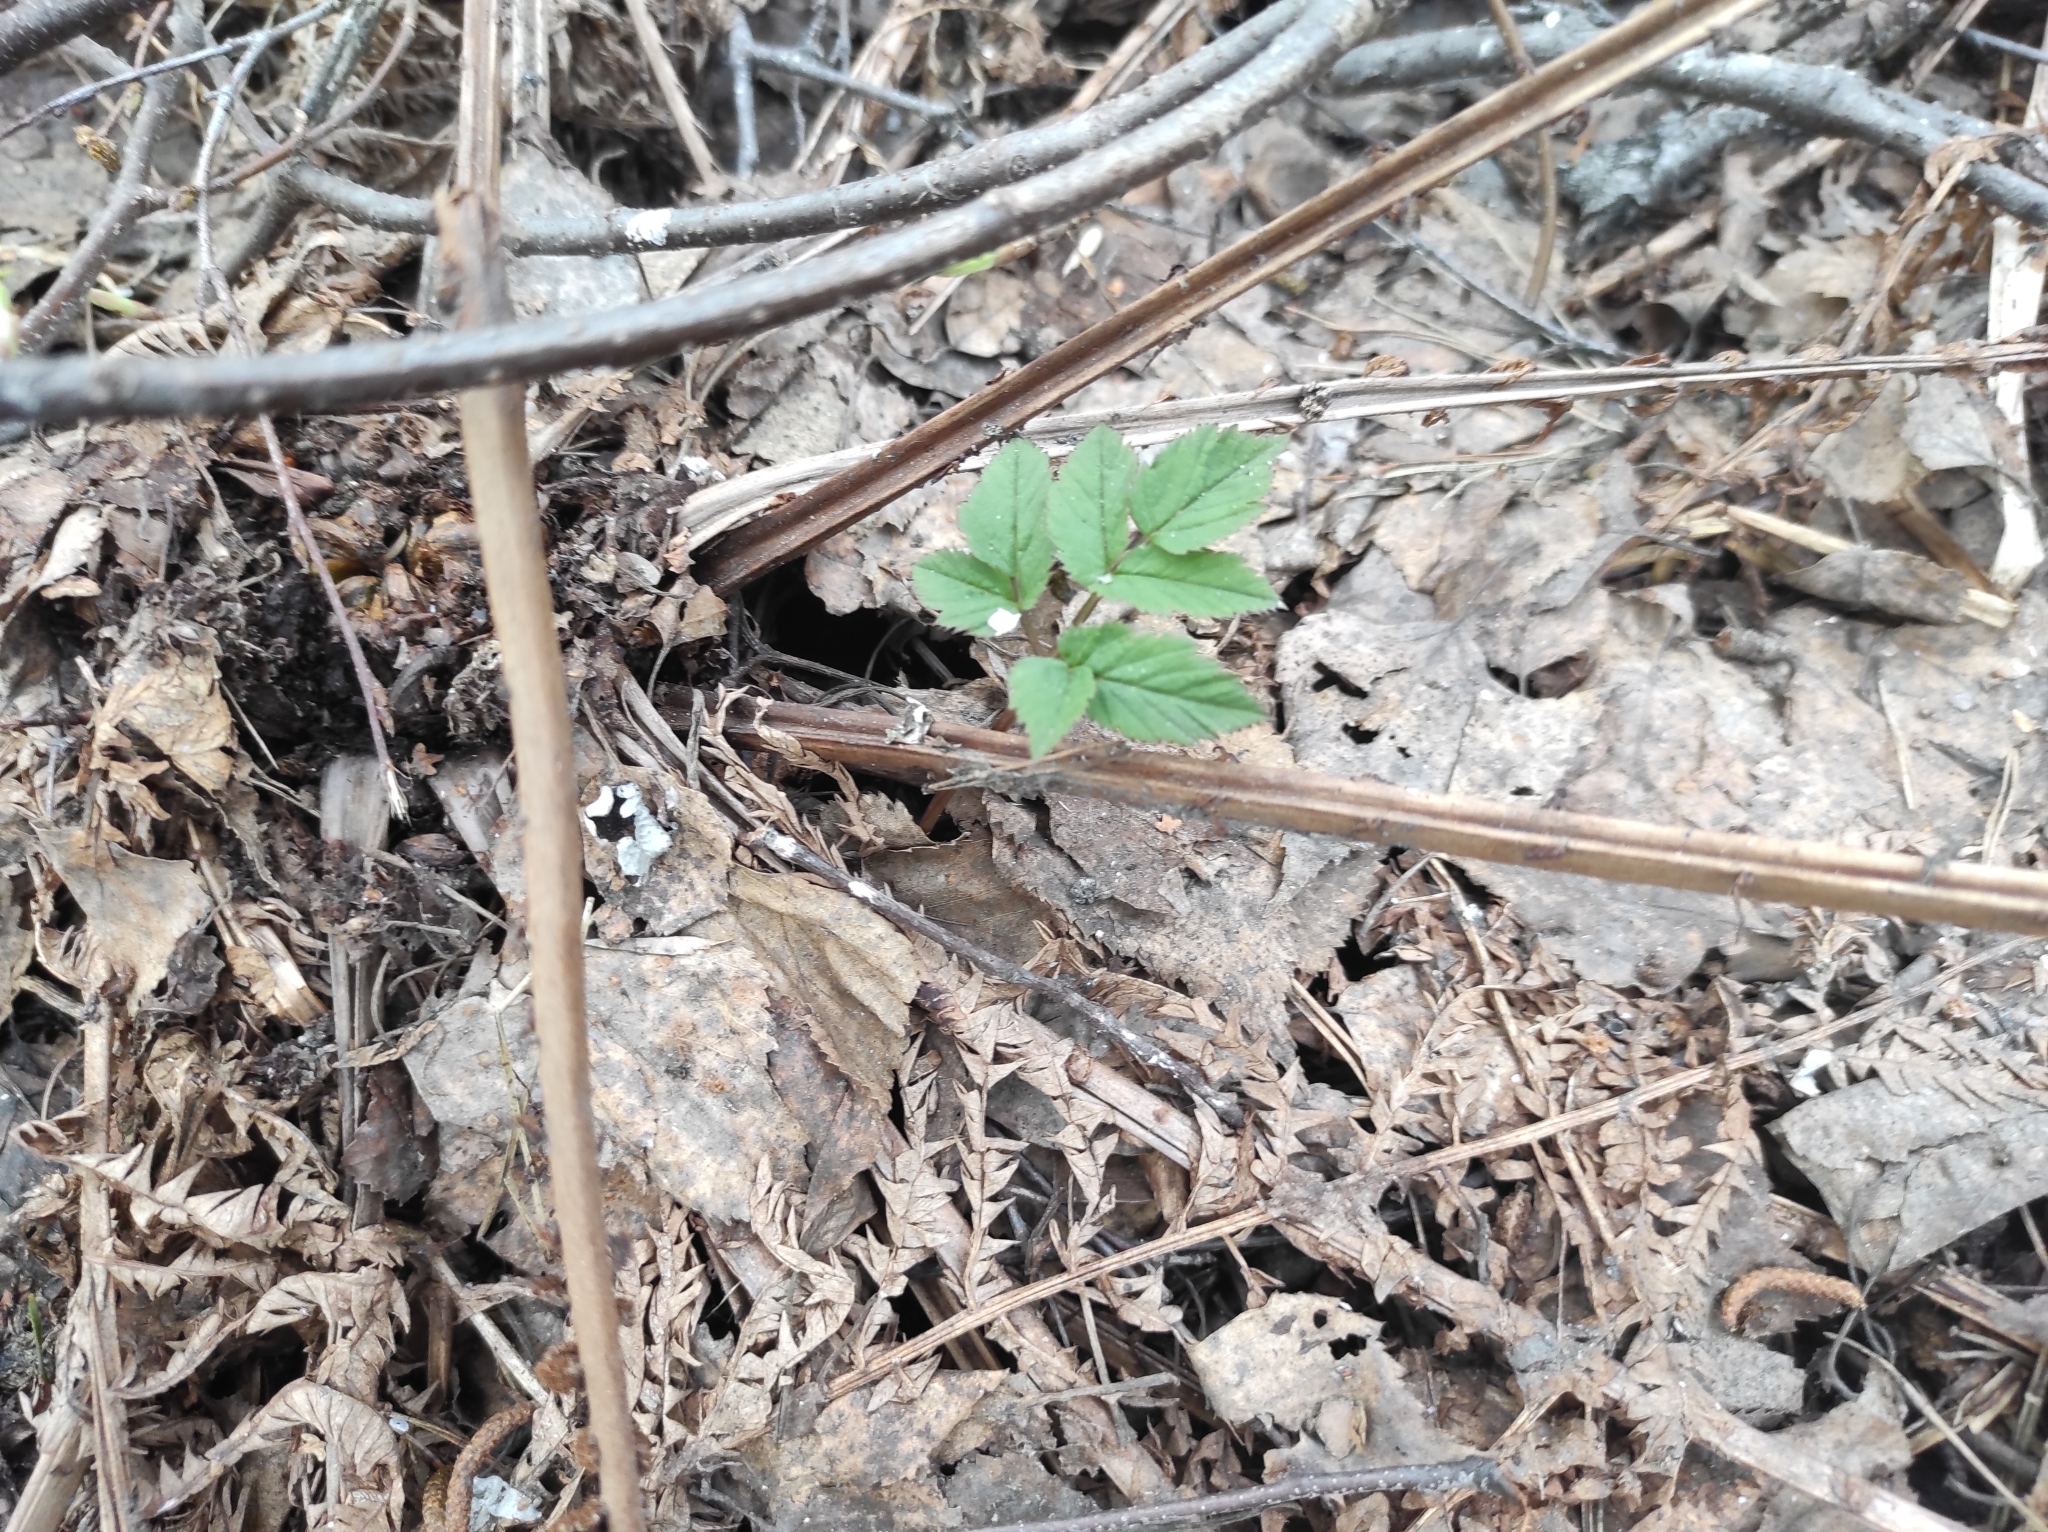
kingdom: Plantae
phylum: Tracheophyta
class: Magnoliopsida
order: Apiales
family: Apiaceae
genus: Aegopodium
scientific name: Aegopodium podagraria
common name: Ground-elder
